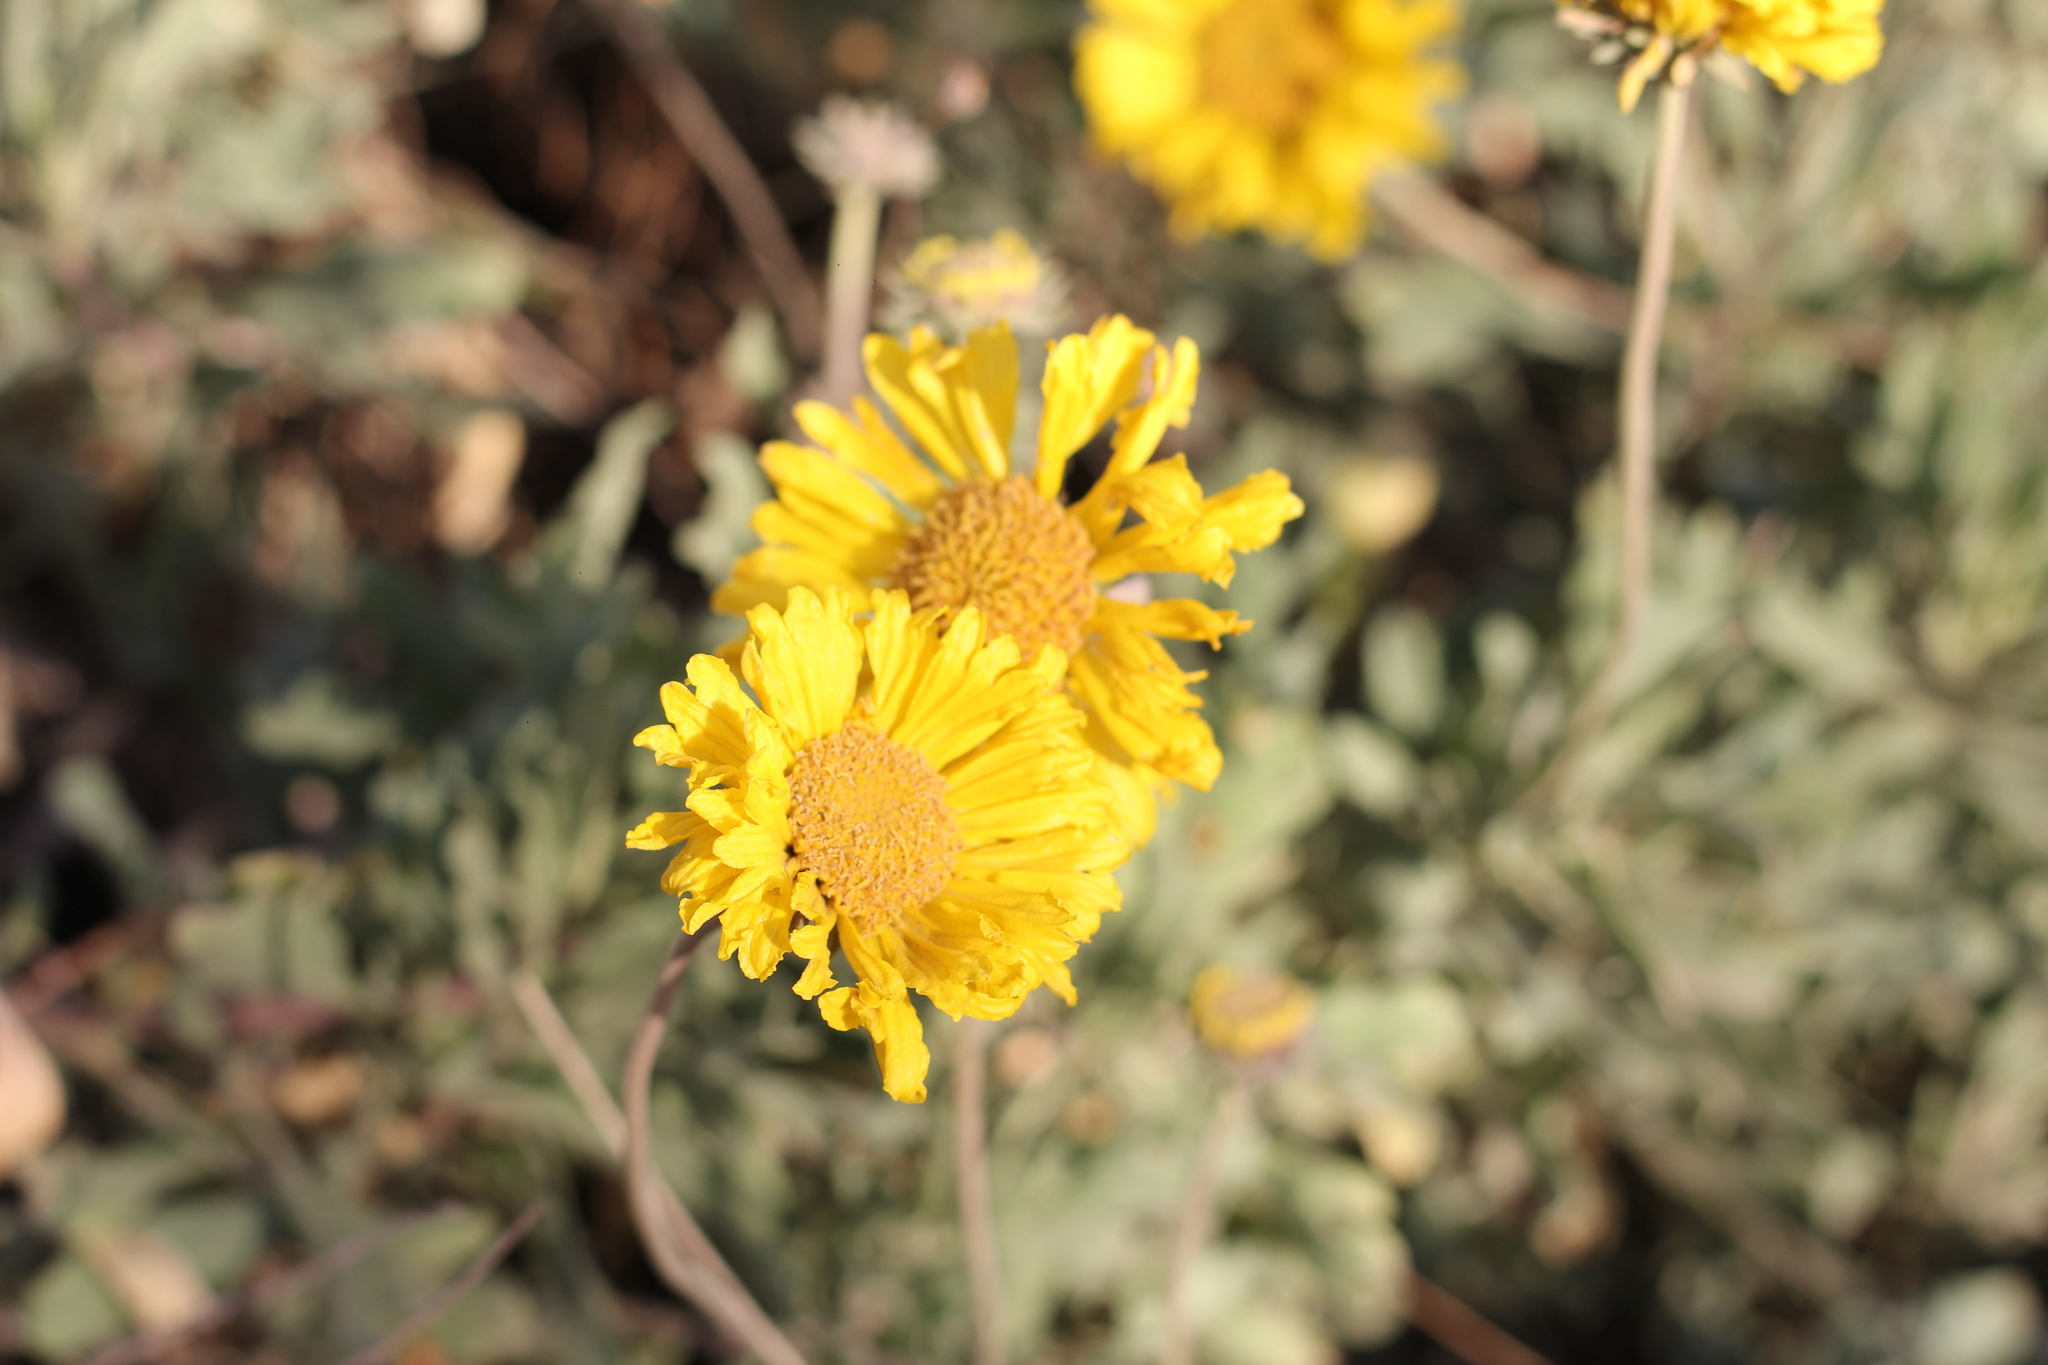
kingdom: Plantae
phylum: Tracheophyta
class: Magnoliopsida
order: Asterales
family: Asteraceae
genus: Gaillardia
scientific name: Gaillardia cabrerae
